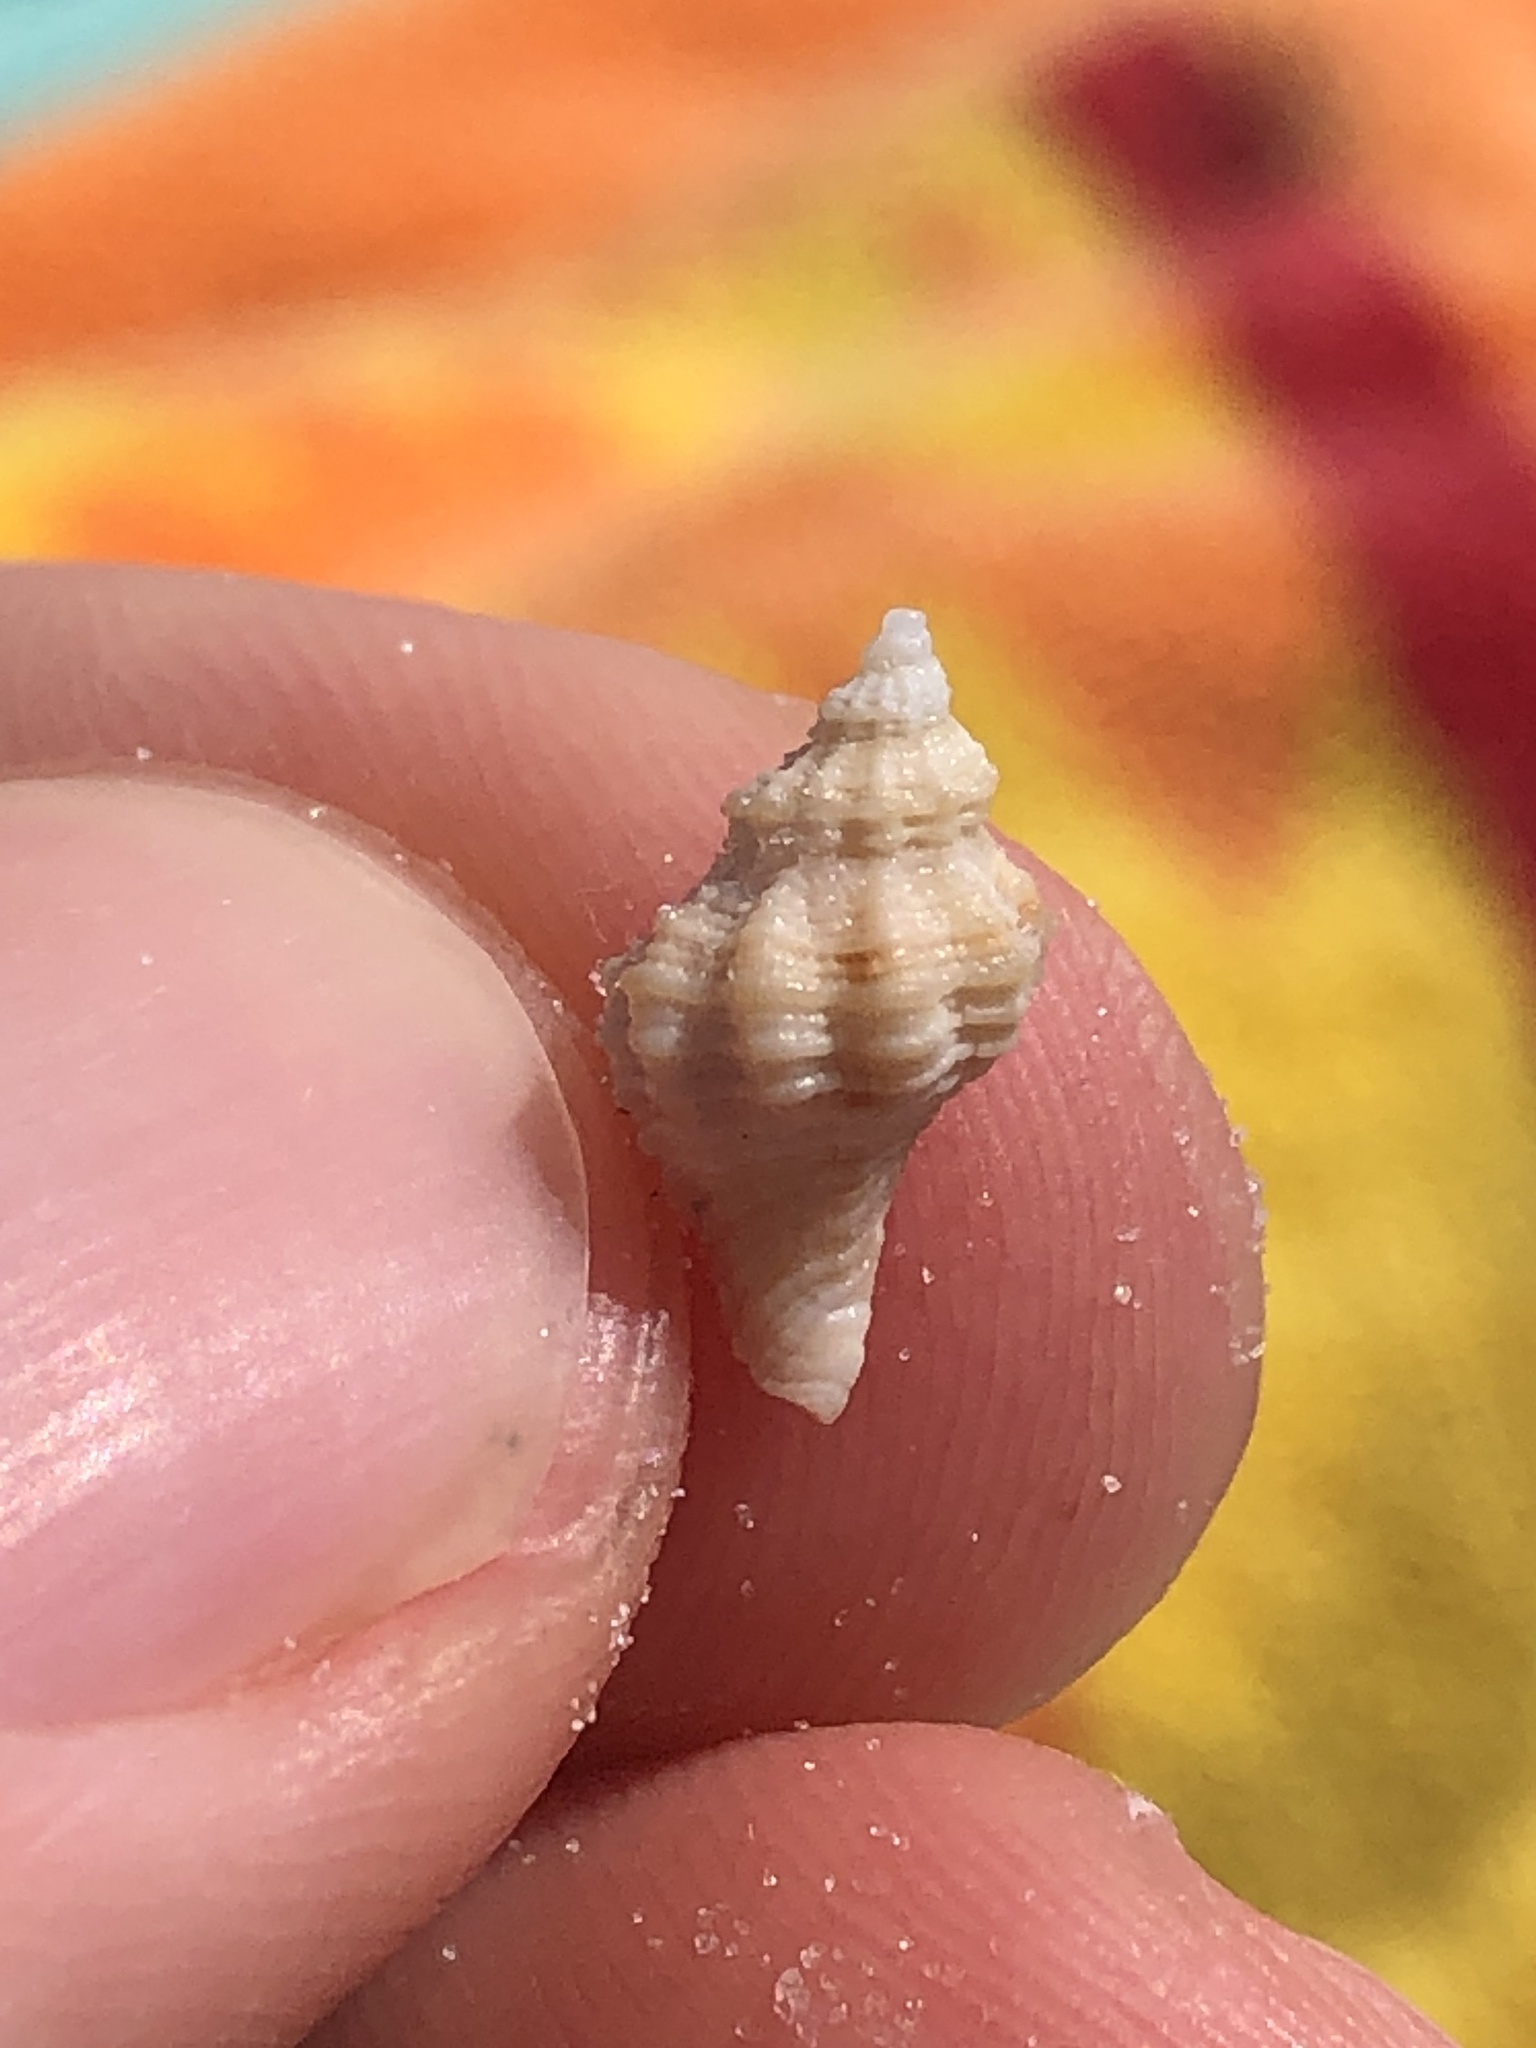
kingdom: Animalia
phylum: Mollusca
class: Gastropoda
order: Neogastropoda
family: Muricidae
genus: Vokesinotus
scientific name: Vokesinotus perrugatus
